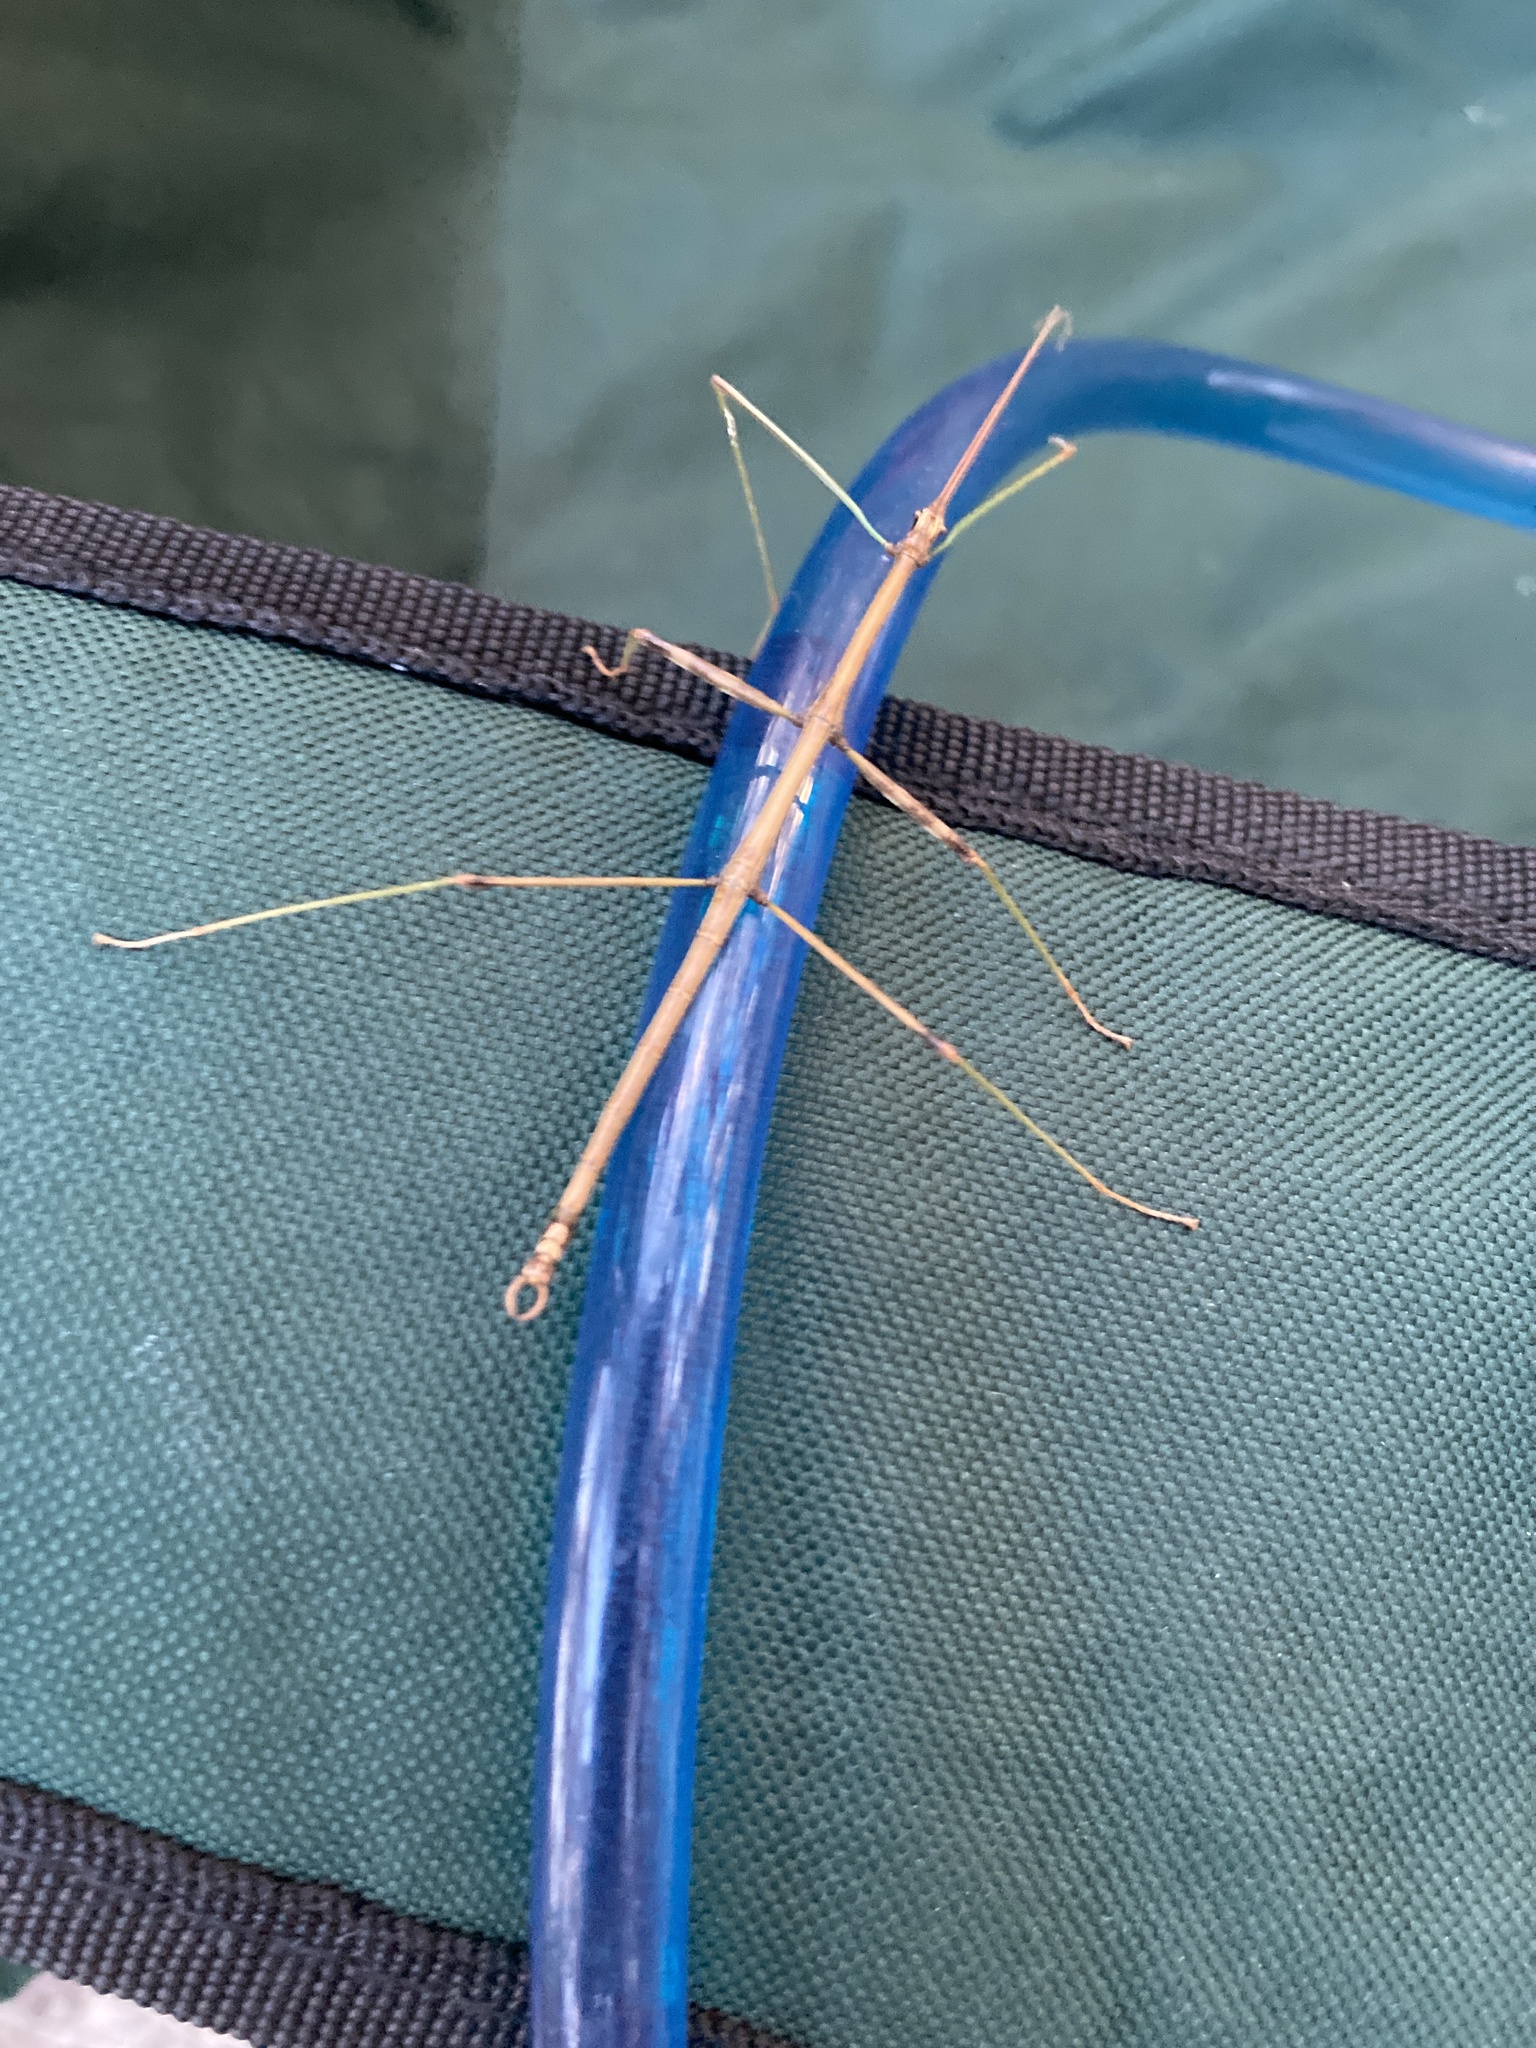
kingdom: Animalia
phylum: Arthropoda
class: Insecta
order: Phasmida
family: Diapheromeridae
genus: Diapheromera
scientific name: Diapheromera femorata
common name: Common american walkingstick
